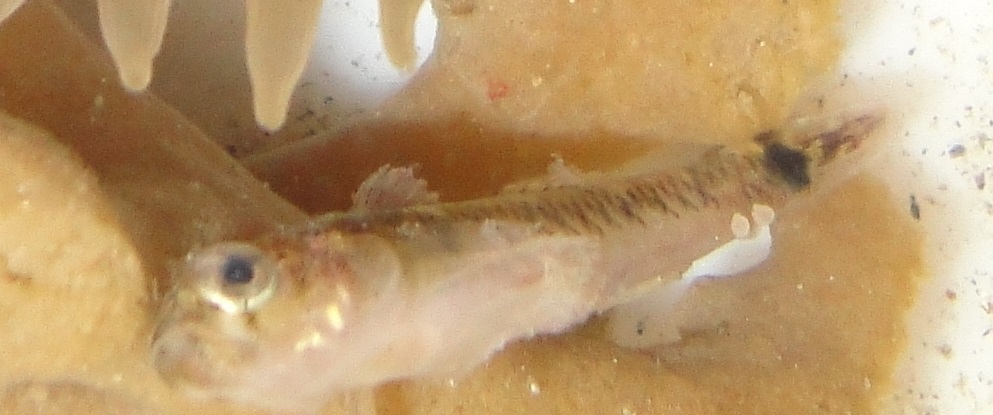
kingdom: Animalia
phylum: Chordata
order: Perciformes
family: Gobiidae
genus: Gobiusculus
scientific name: Gobiusculus flavescens
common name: Two-spotted goby
